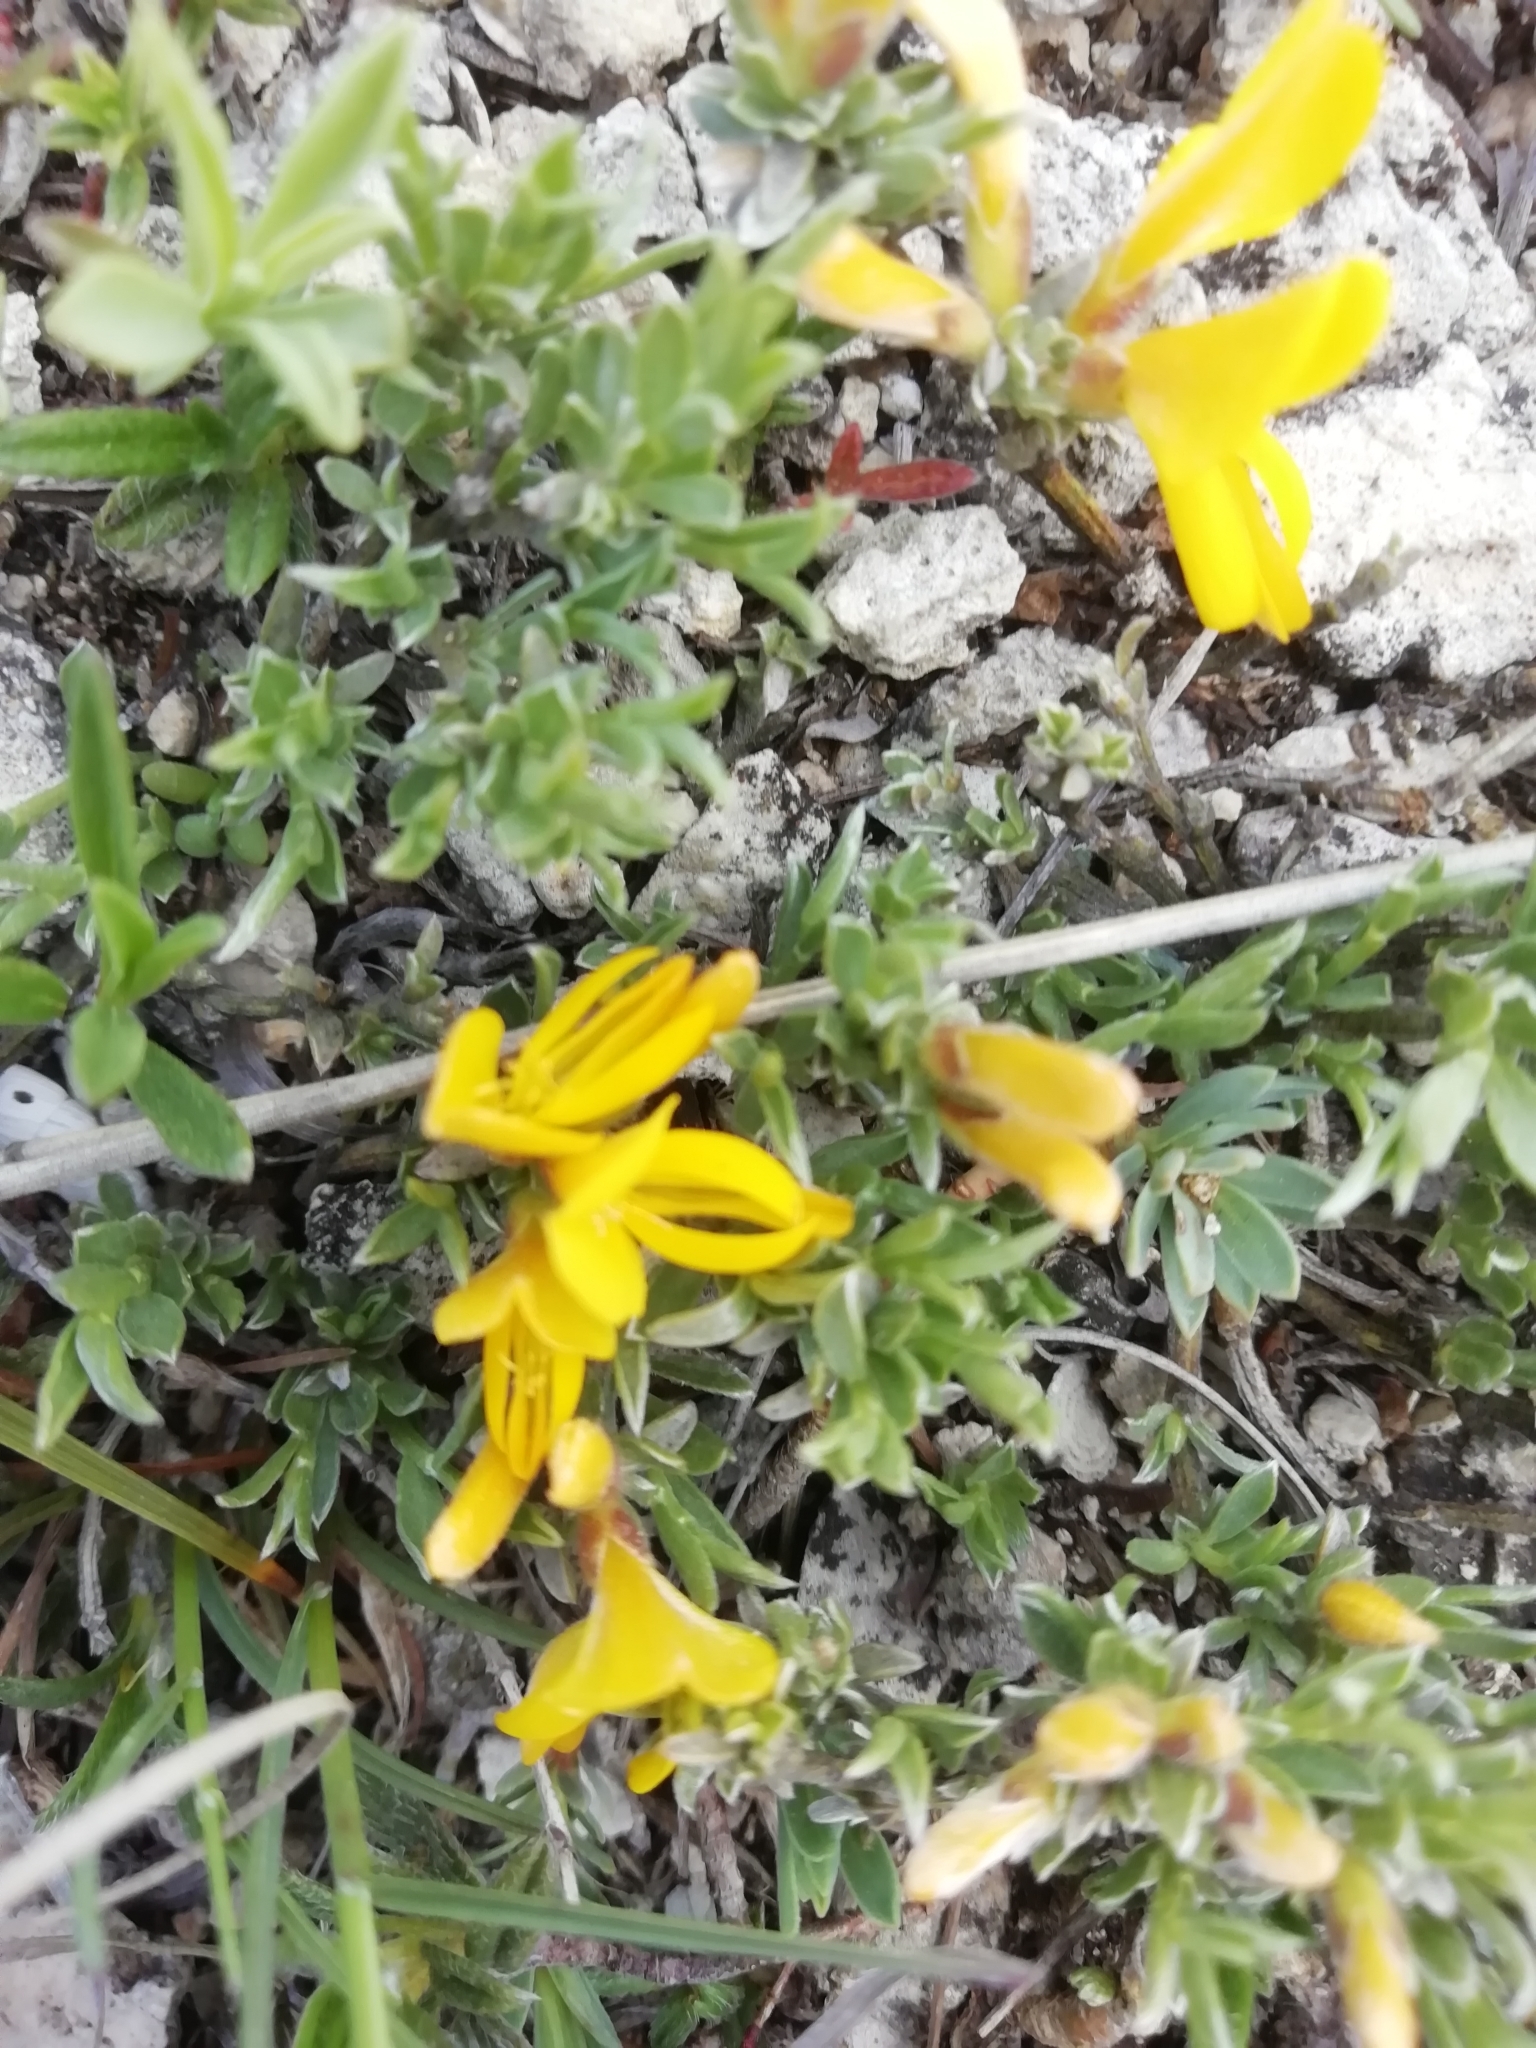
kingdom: Plantae
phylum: Tracheophyta
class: Magnoliopsida
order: Fabales
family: Fabaceae
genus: Genista
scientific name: Genista albida
